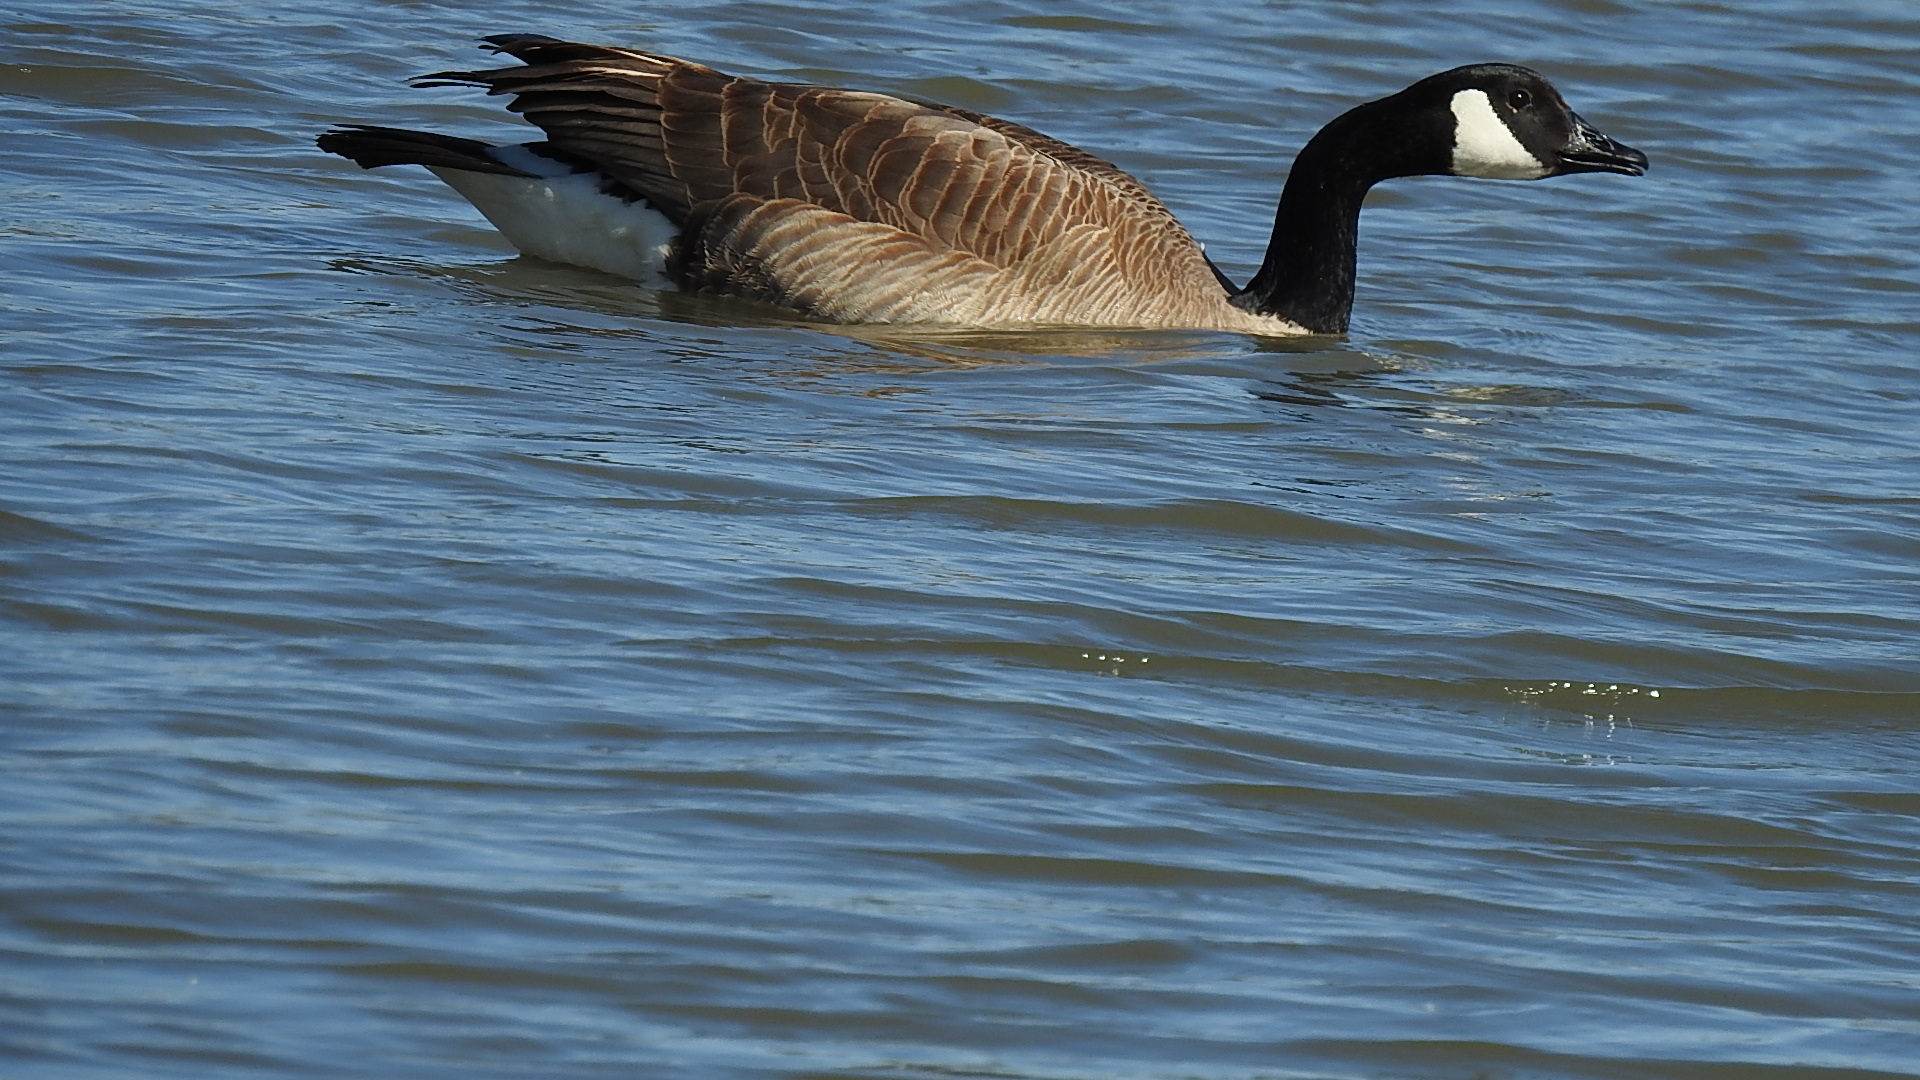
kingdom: Animalia
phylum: Chordata
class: Aves
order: Anseriformes
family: Anatidae
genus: Branta
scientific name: Branta canadensis
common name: Canada goose
